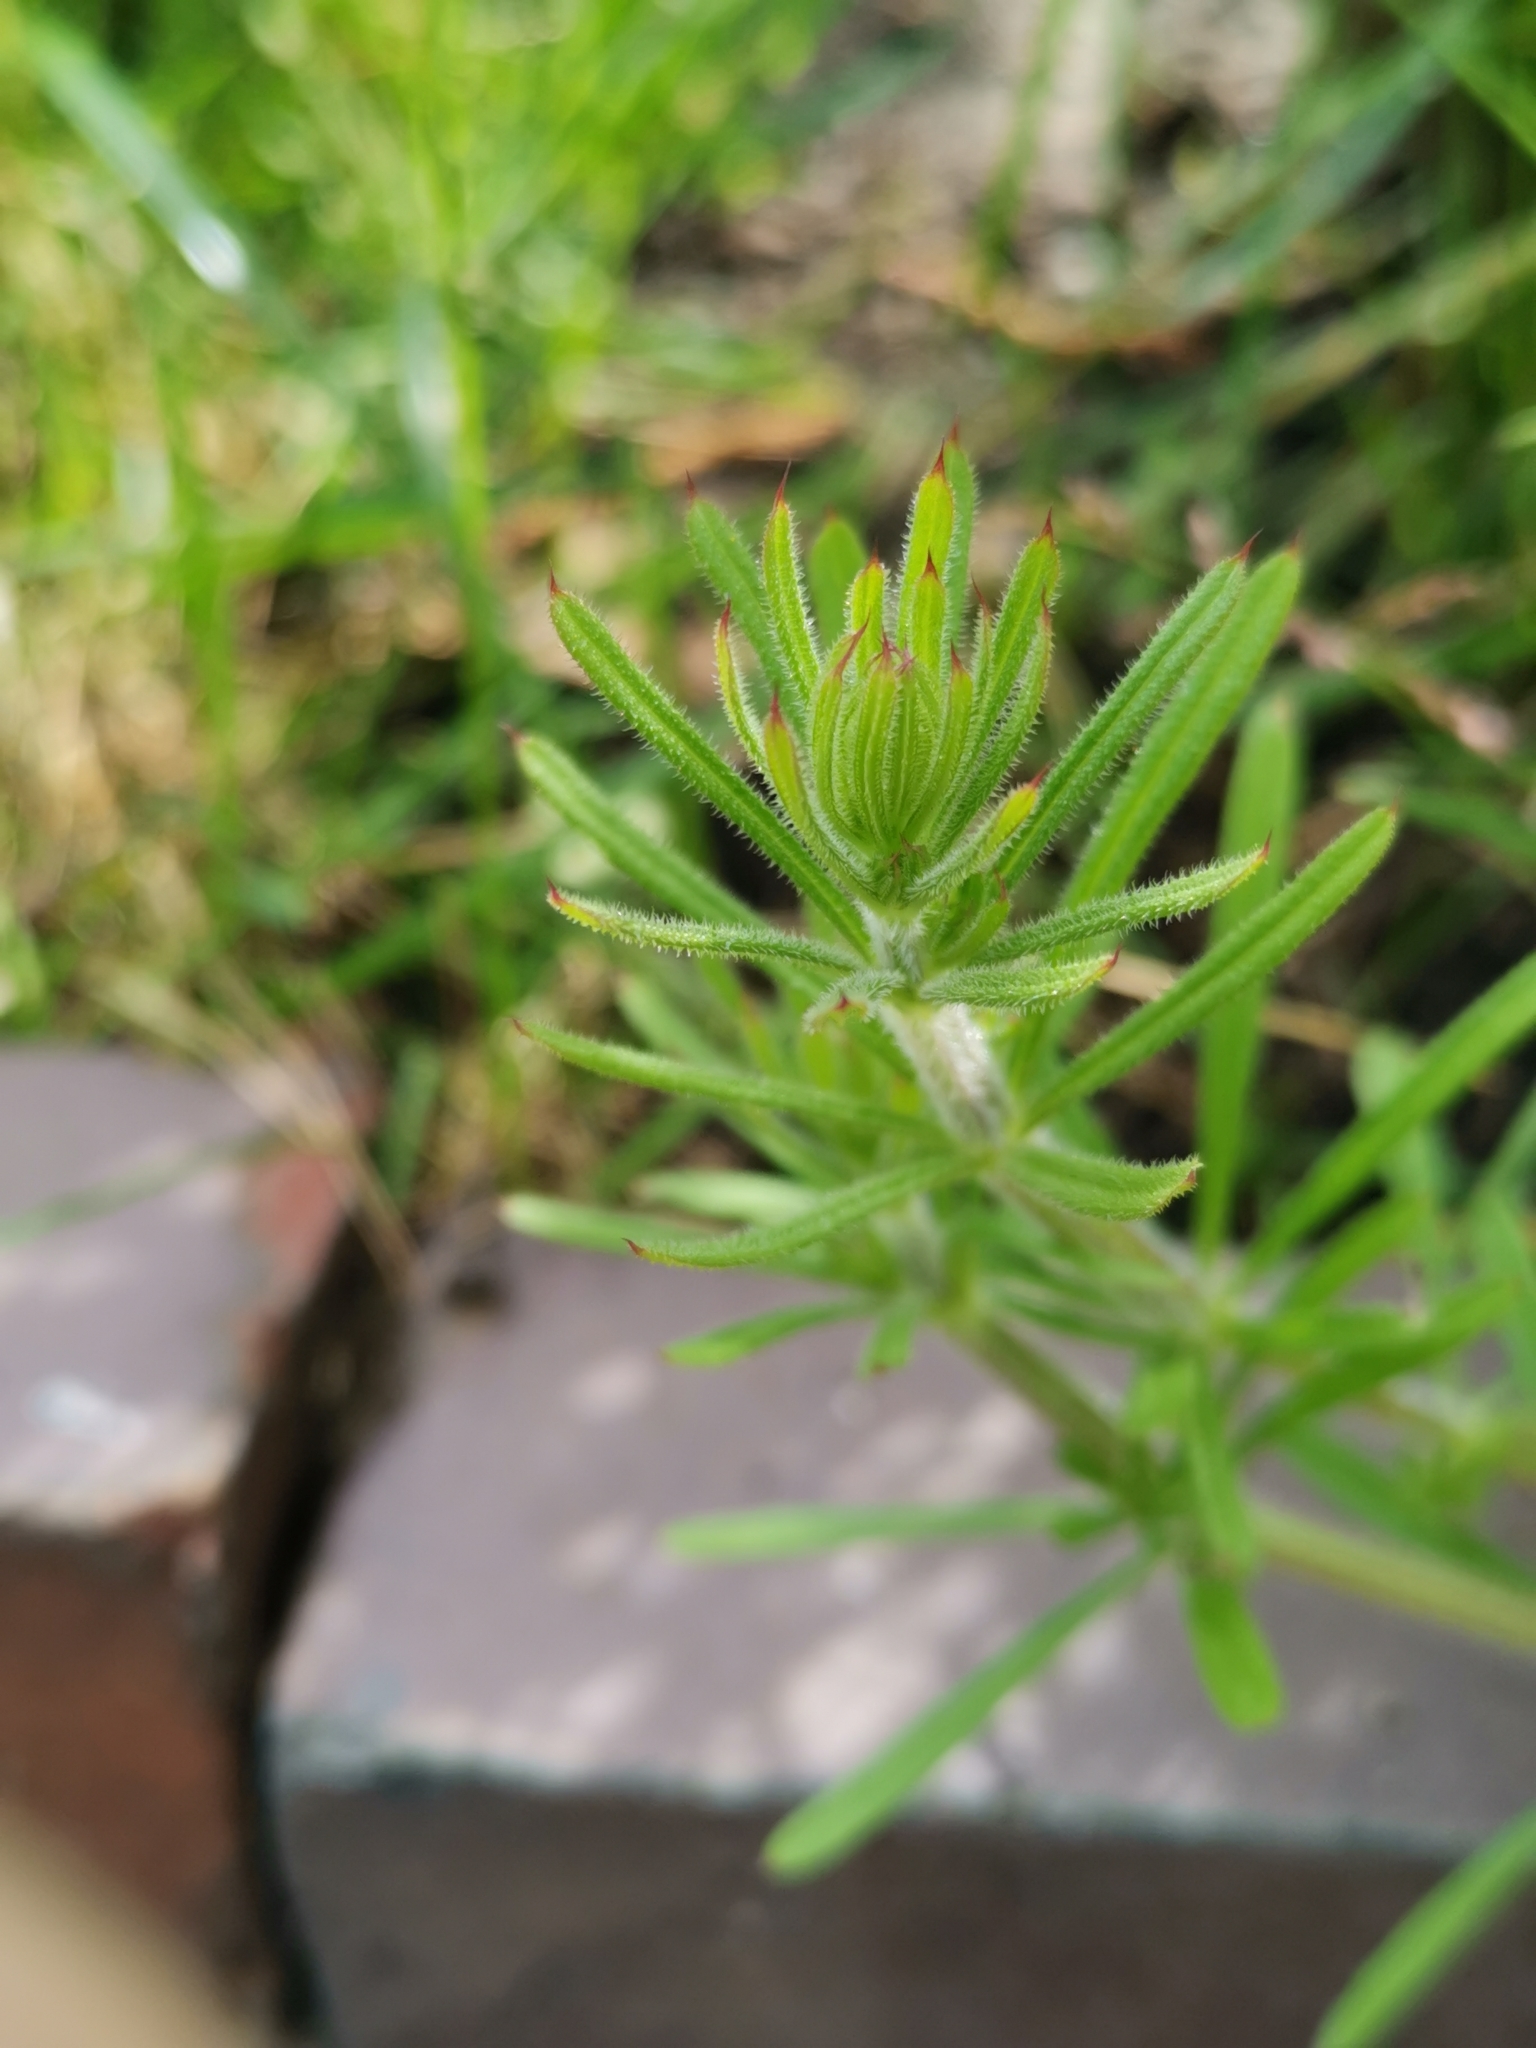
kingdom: Plantae
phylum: Tracheophyta
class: Magnoliopsida
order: Gentianales
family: Rubiaceae
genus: Galium
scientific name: Galium aparine
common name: Cleavers
